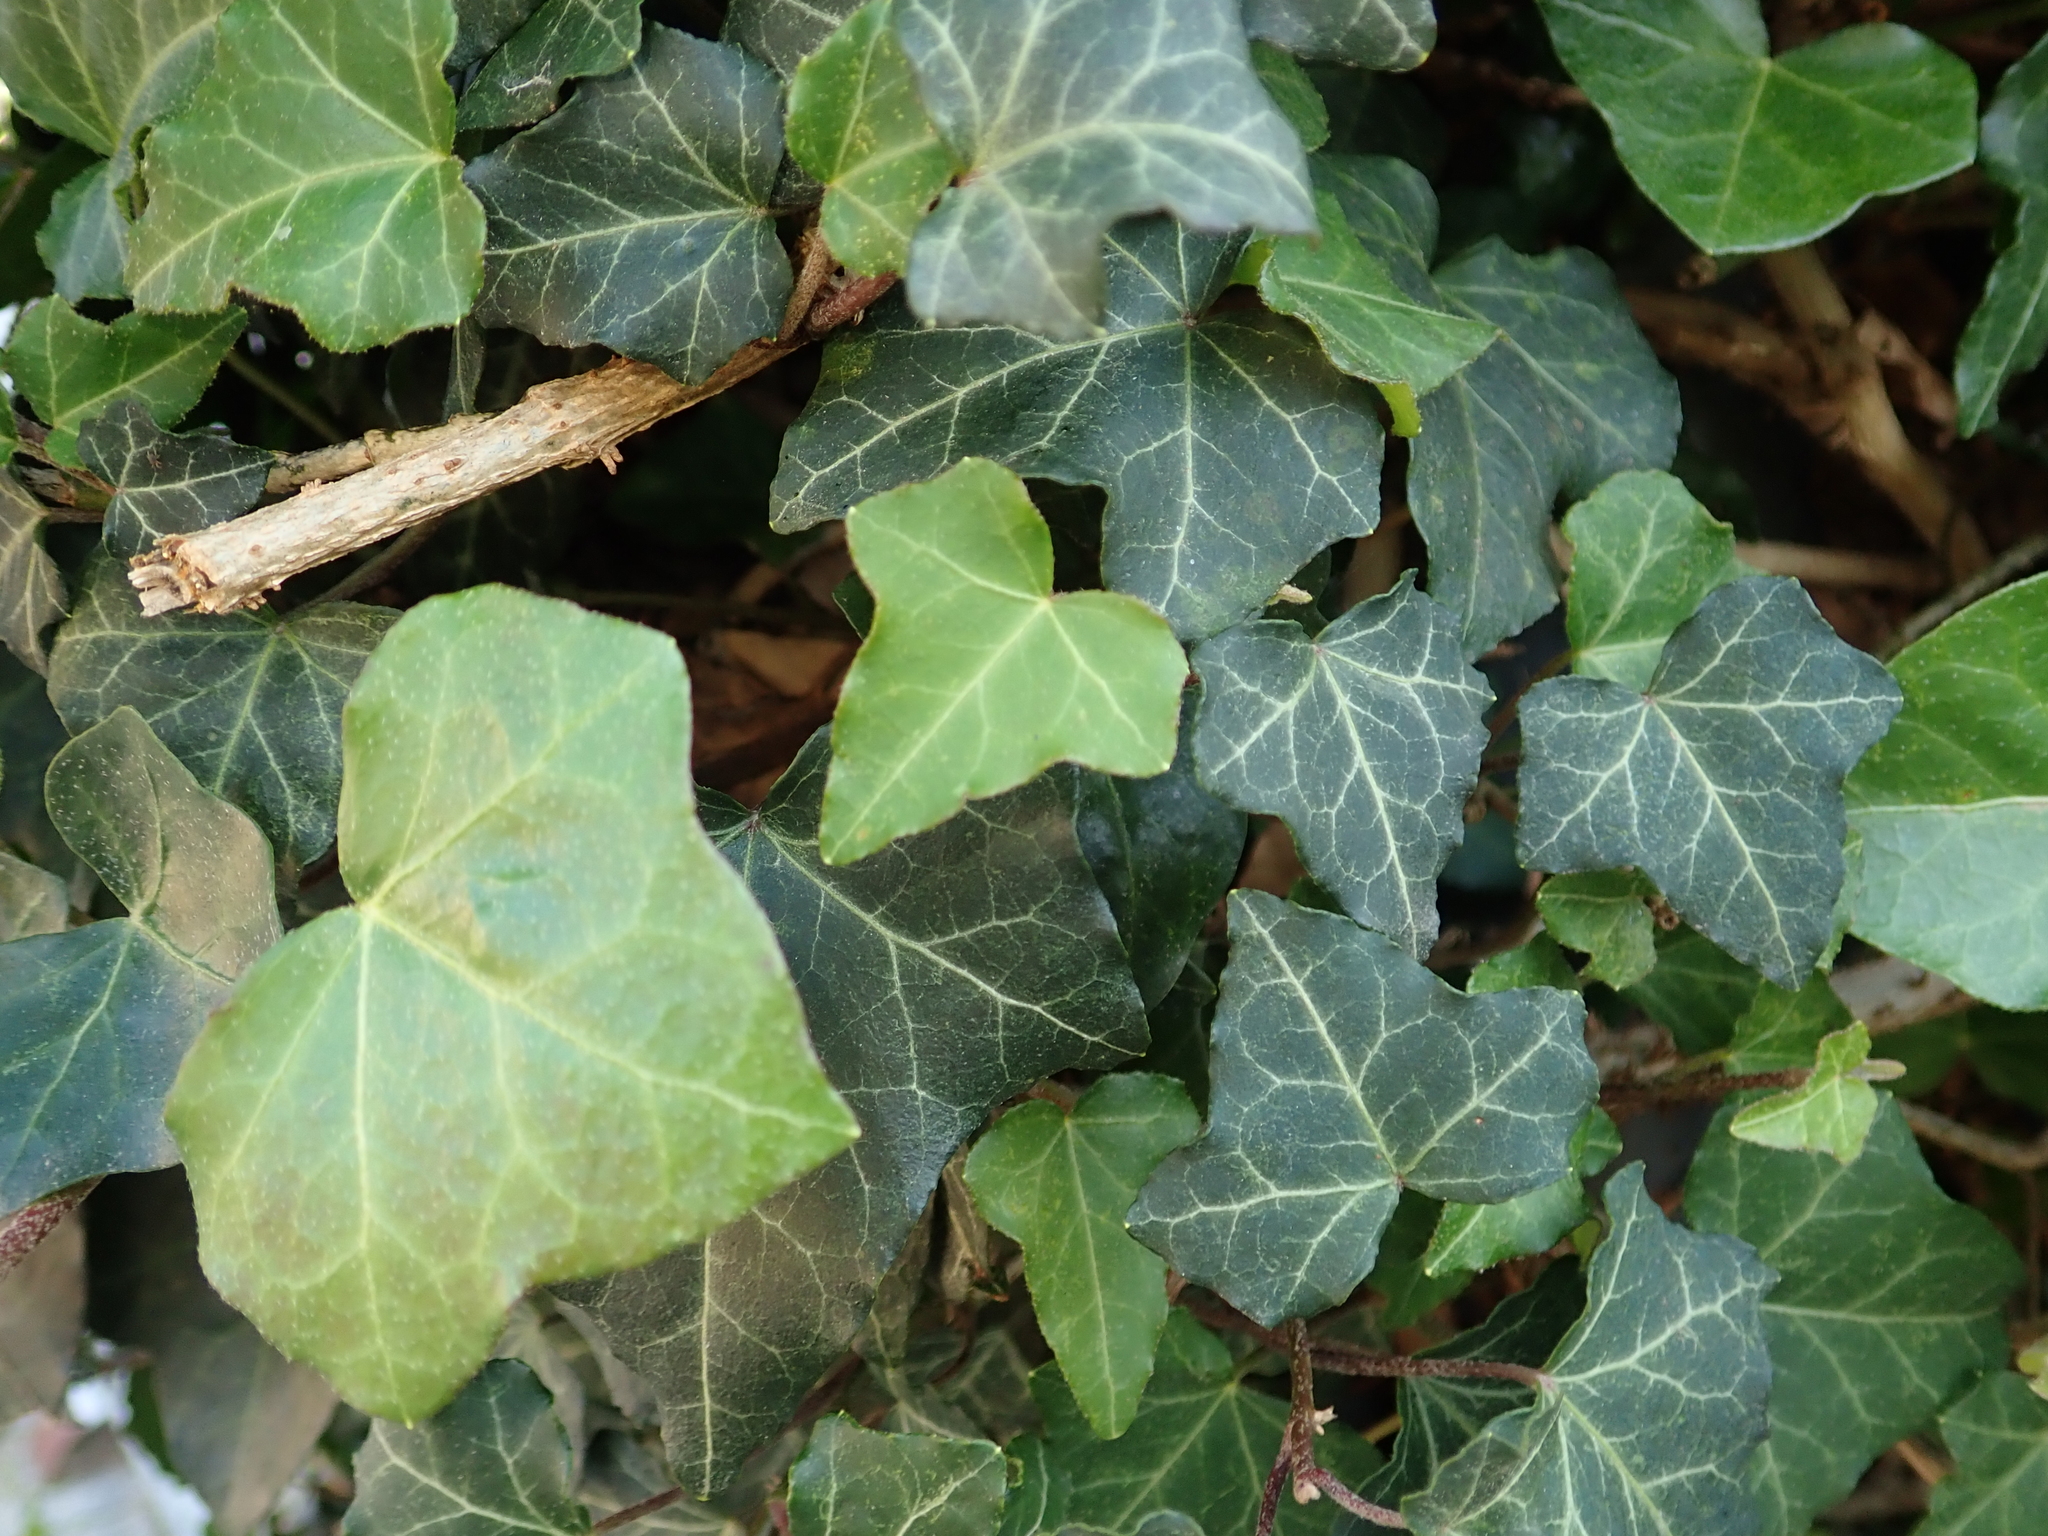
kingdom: Plantae
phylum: Tracheophyta
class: Magnoliopsida
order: Apiales
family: Araliaceae
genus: Hedera
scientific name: Hedera helix
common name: Ivy
